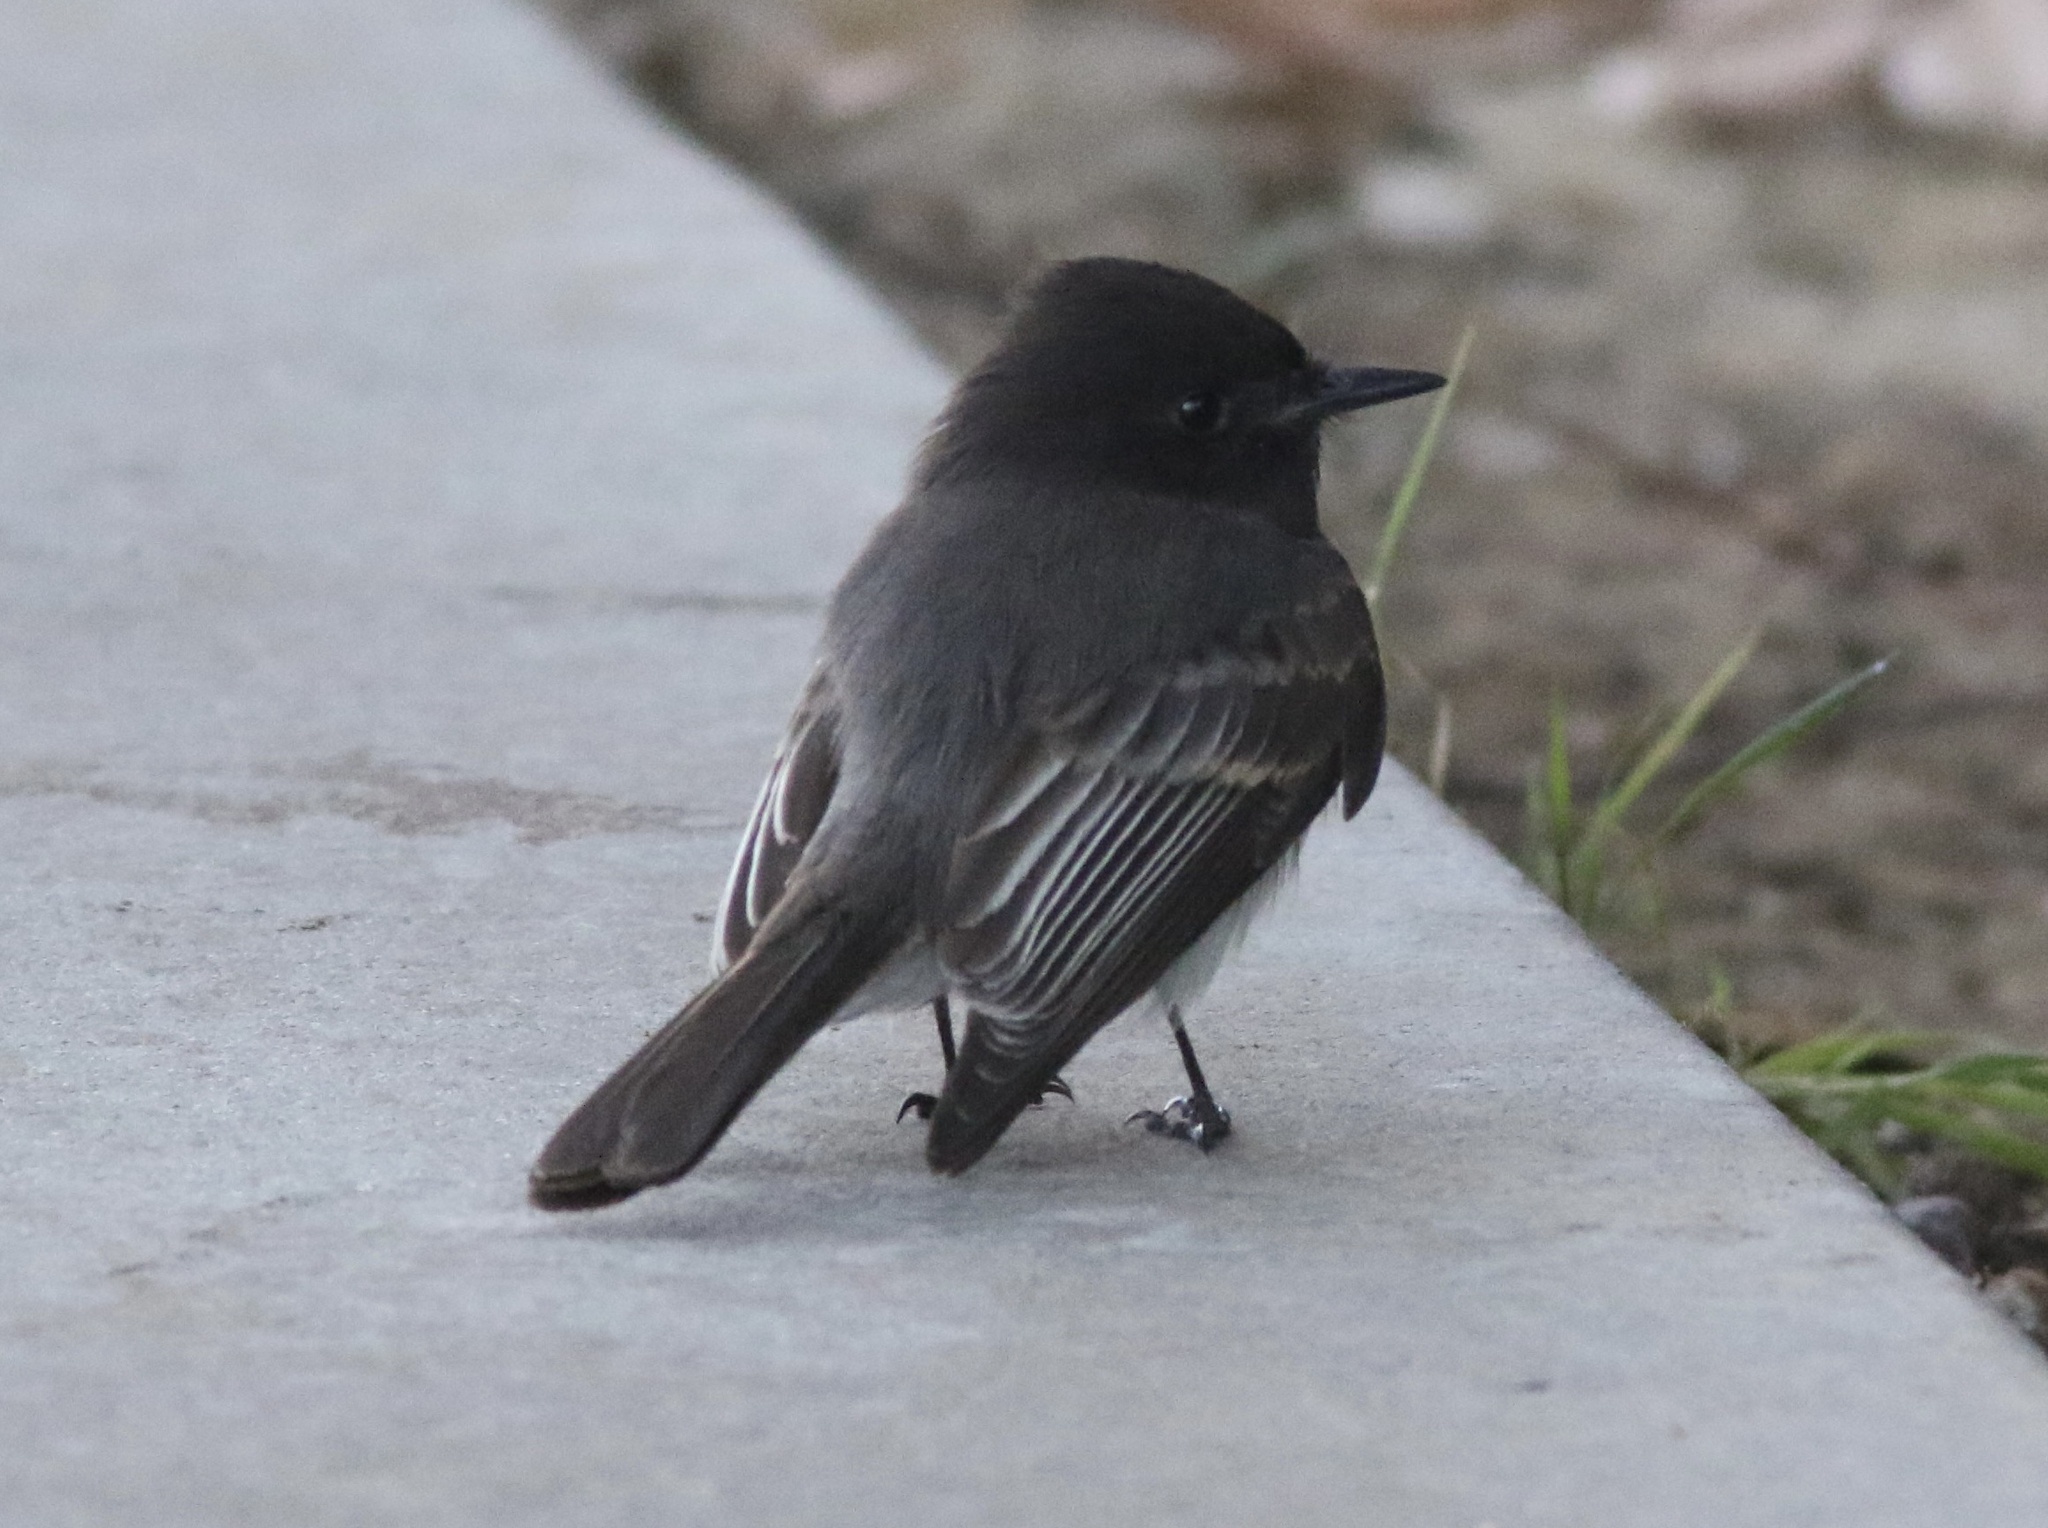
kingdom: Animalia
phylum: Chordata
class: Aves
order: Passeriformes
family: Tyrannidae
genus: Sayornis
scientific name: Sayornis nigricans
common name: Black phoebe
